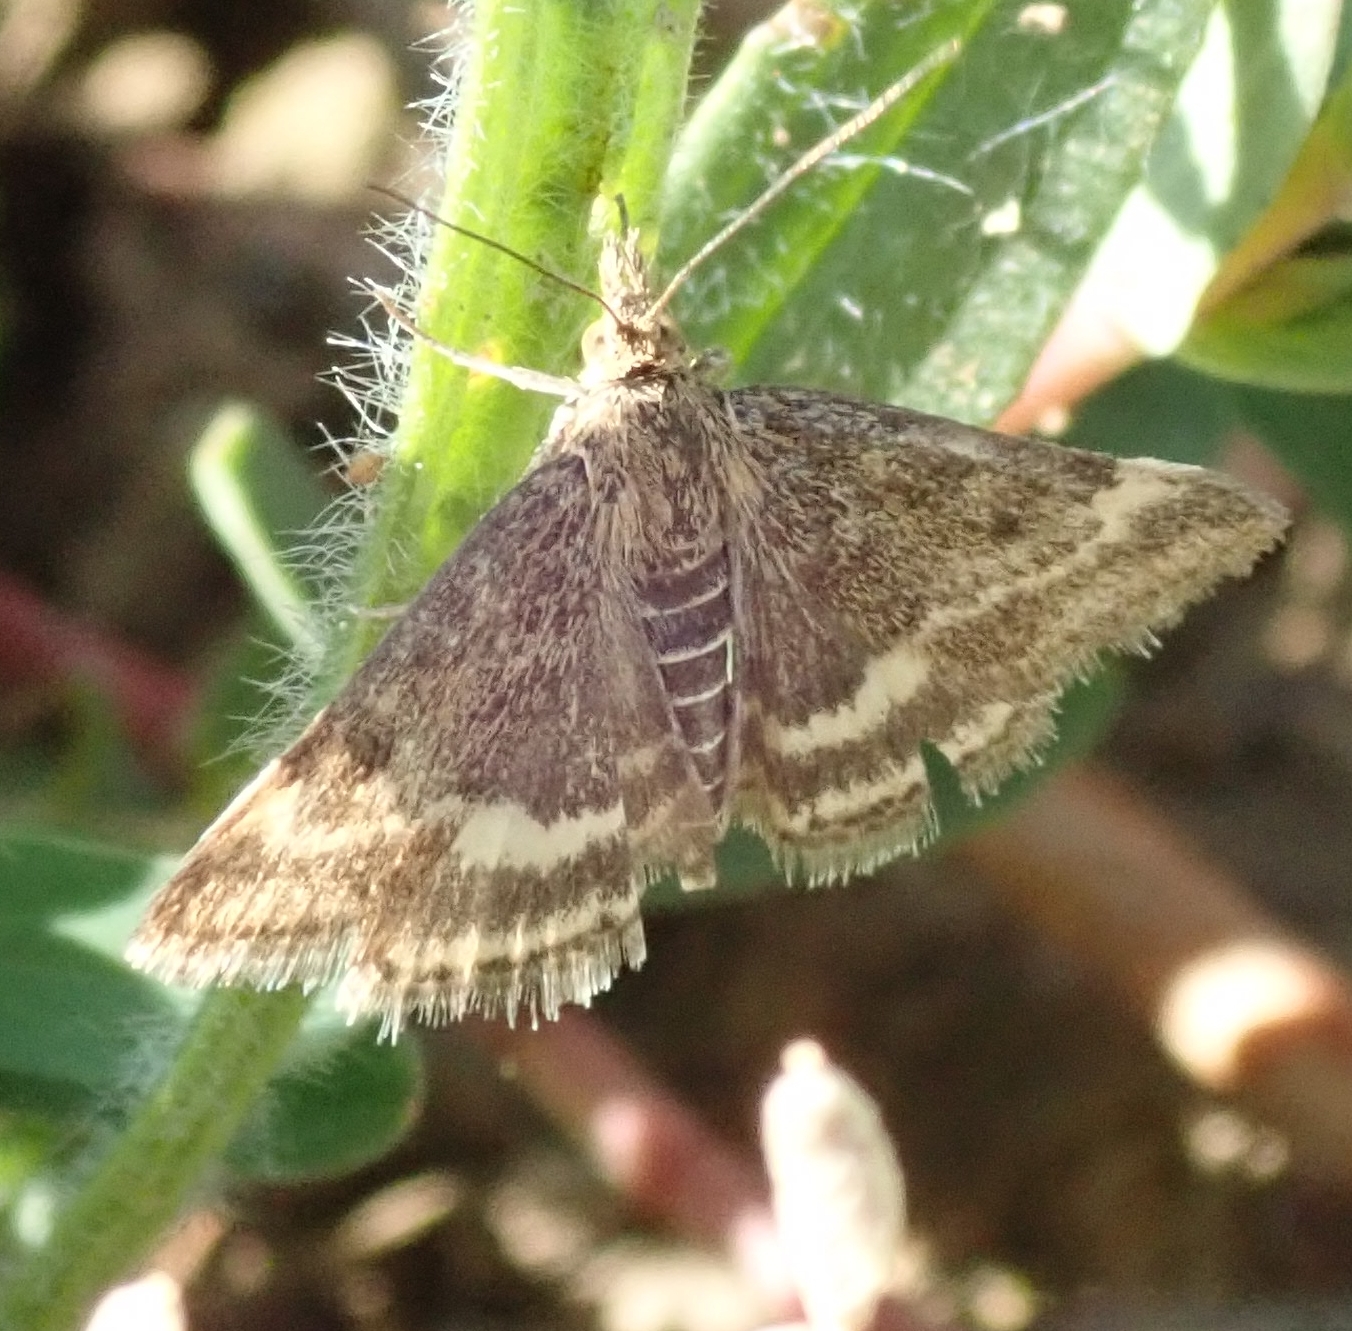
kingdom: Animalia
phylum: Arthropoda
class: Insecta
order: Lepidoptera
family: Crambidae
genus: Pyrausta
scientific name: Pyrausta despicata
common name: Straw-barred pearl
